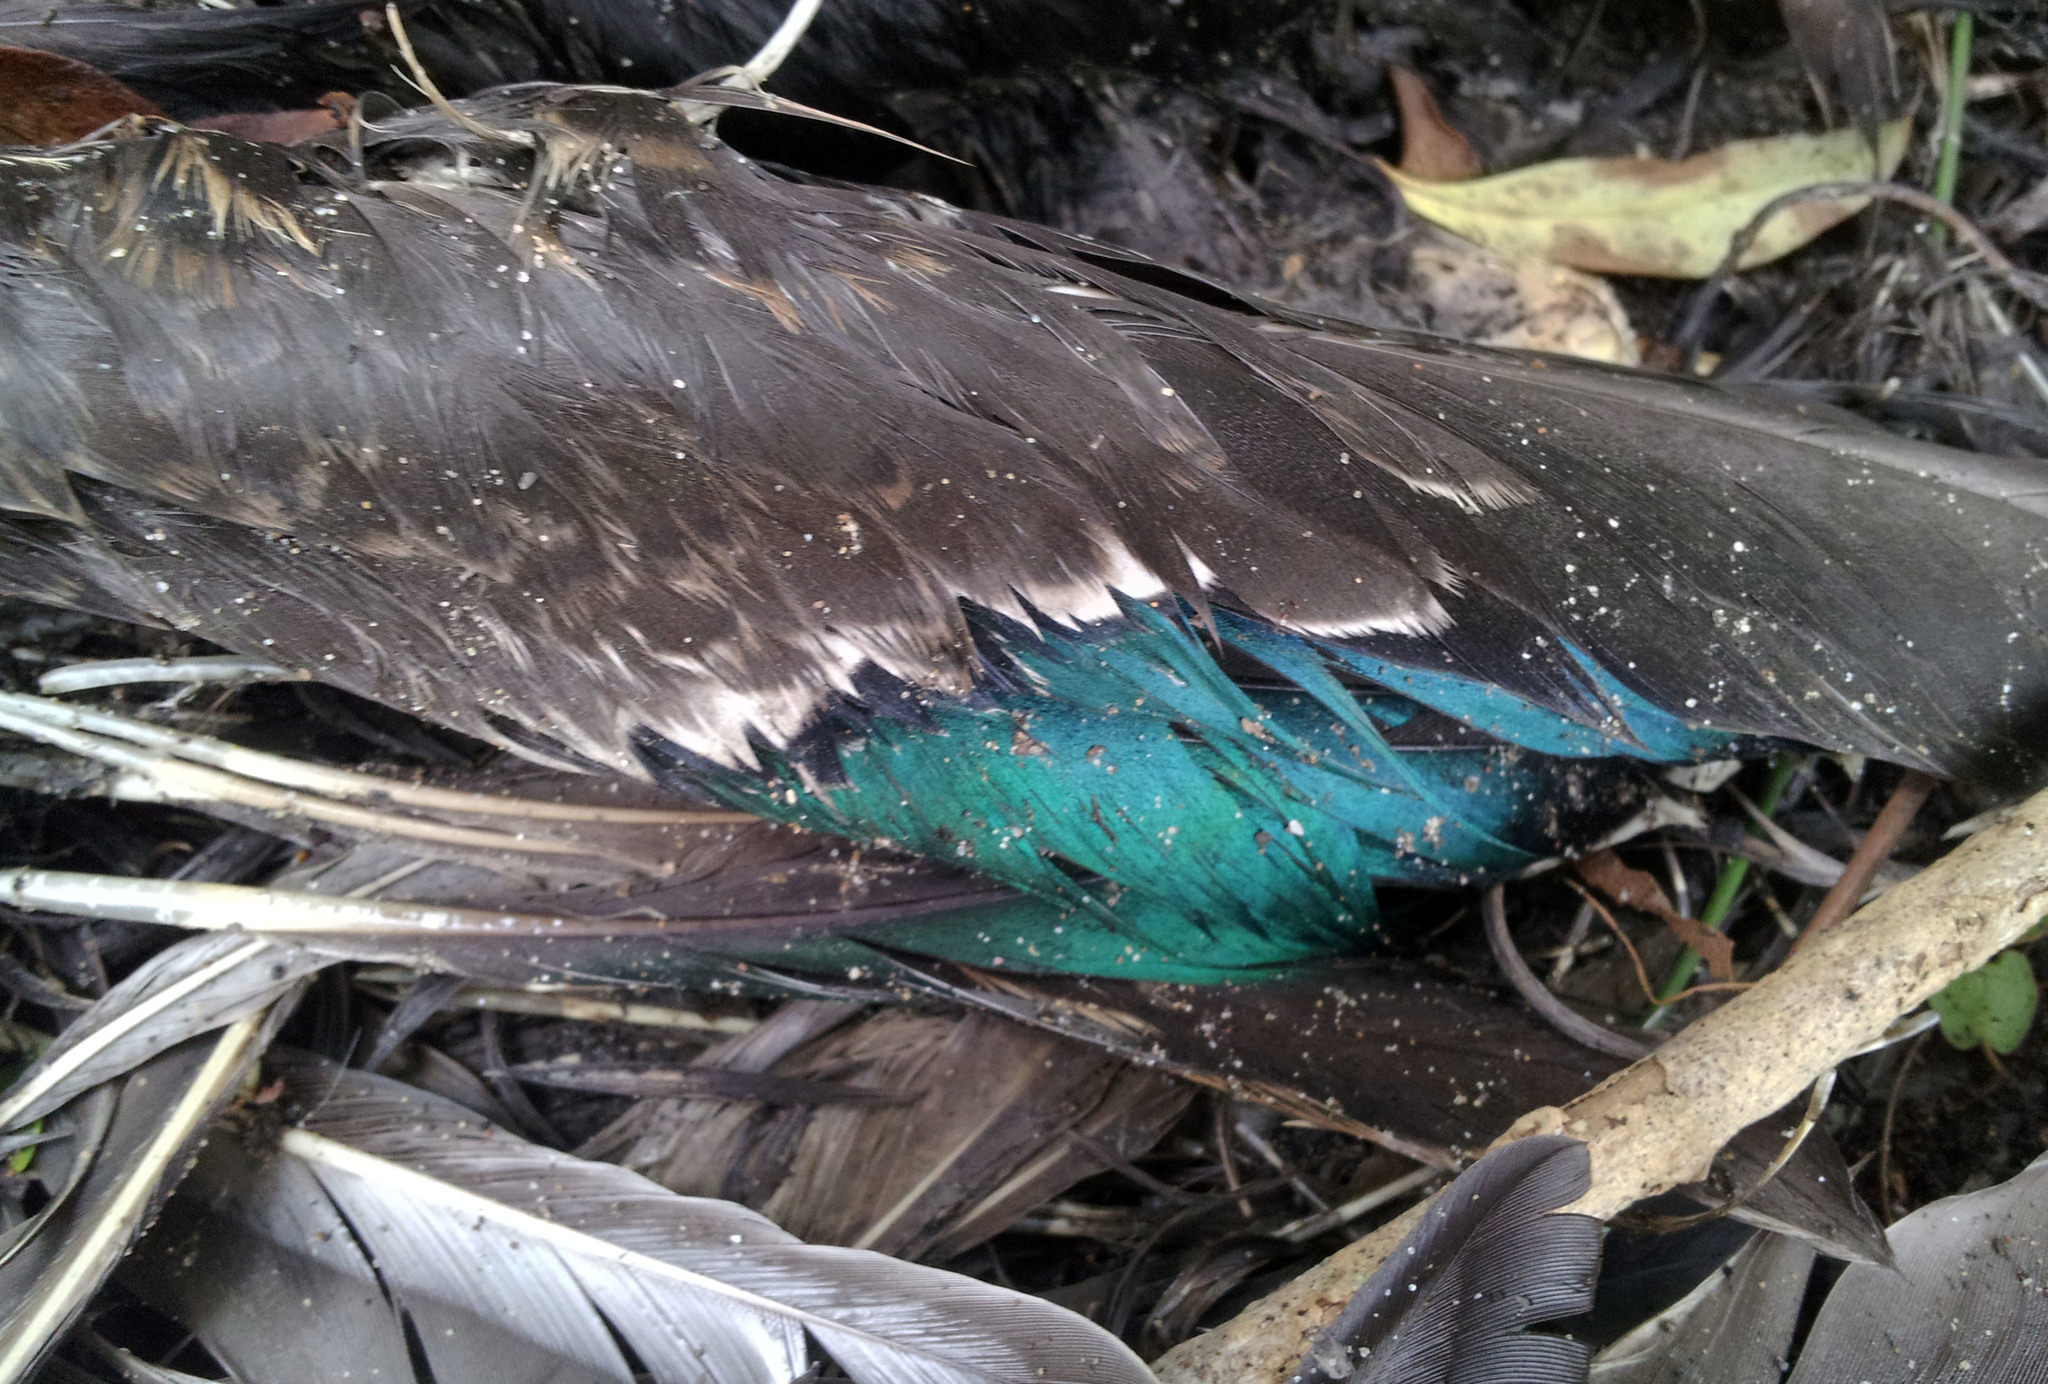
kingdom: Animalia
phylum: Chordata
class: Aves
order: Anseriformes
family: Anatidae
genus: Anas
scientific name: Anas
